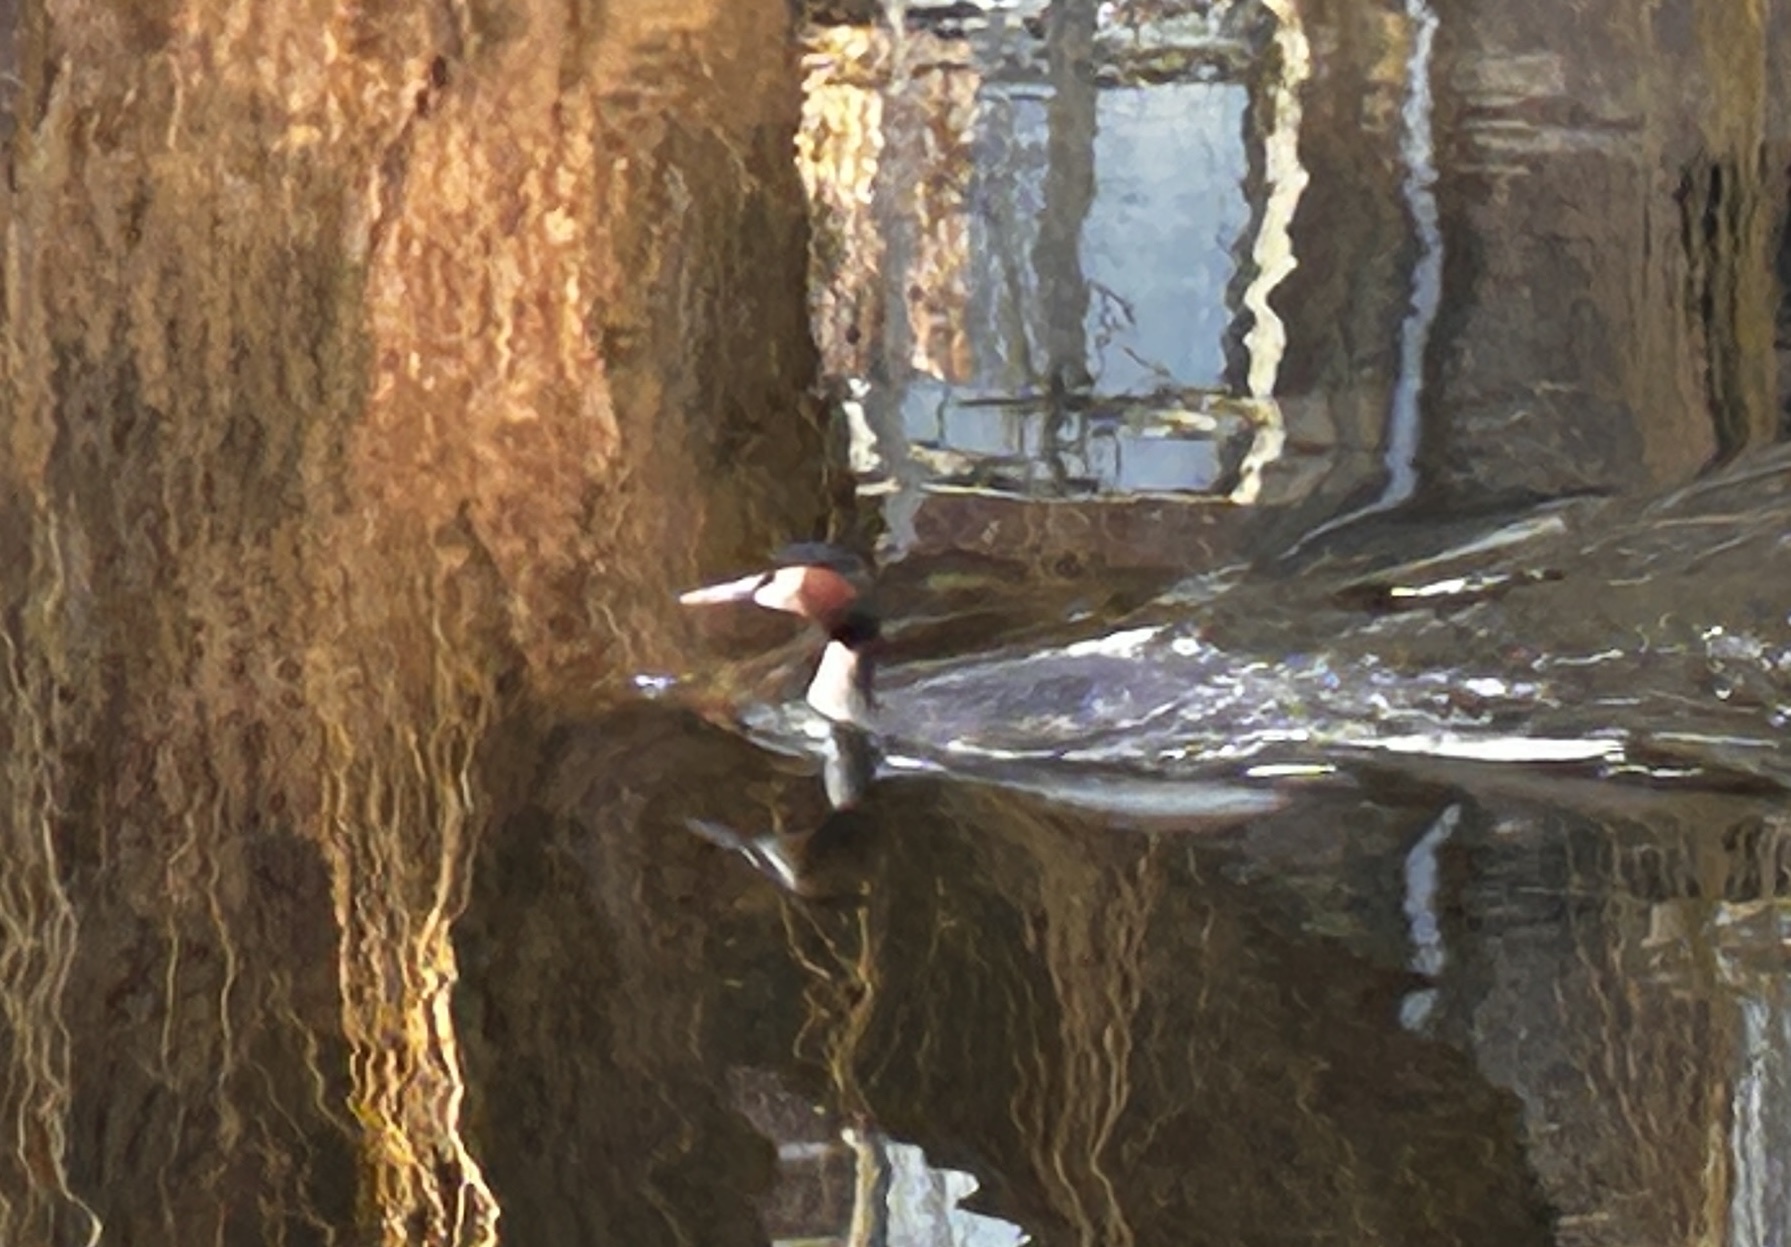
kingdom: Animalia
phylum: Chordata
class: Aves
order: Podicipediformes
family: Podicipedidae
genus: Podiceps
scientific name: Podiceps cristatus
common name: Great crested grebe
